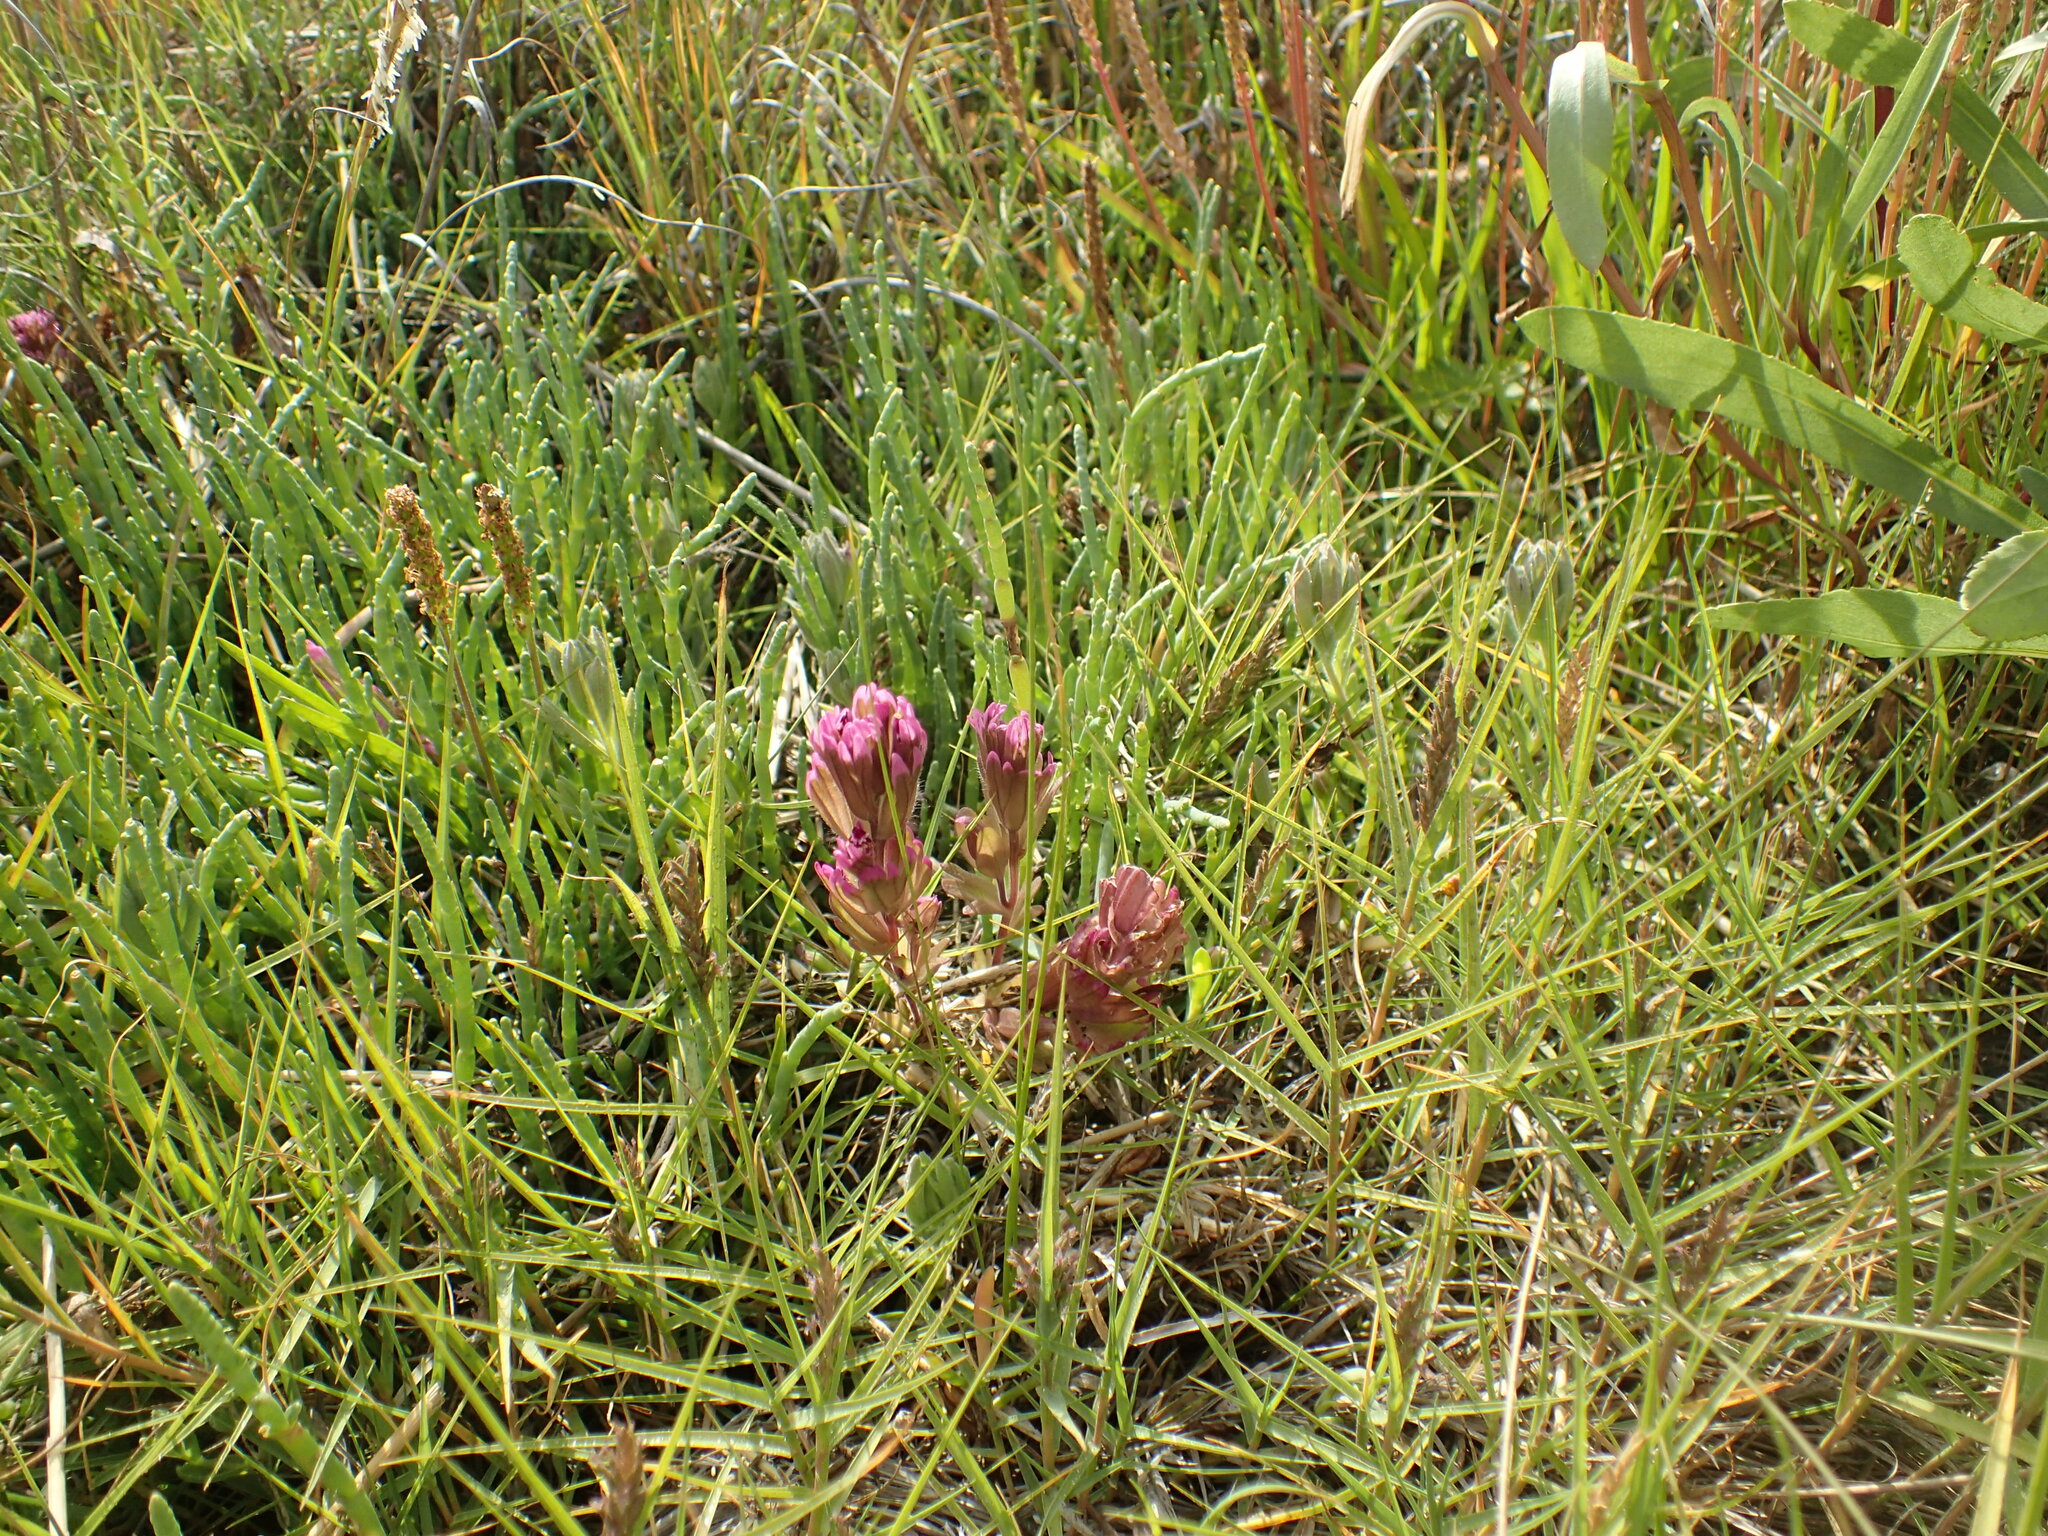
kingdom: Plantae
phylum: Tracheophyta
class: Magnoliopsida
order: Lamiales
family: Orobanchaceae
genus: Castilleja
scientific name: Castilleja ambigua
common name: Johnny-nip
